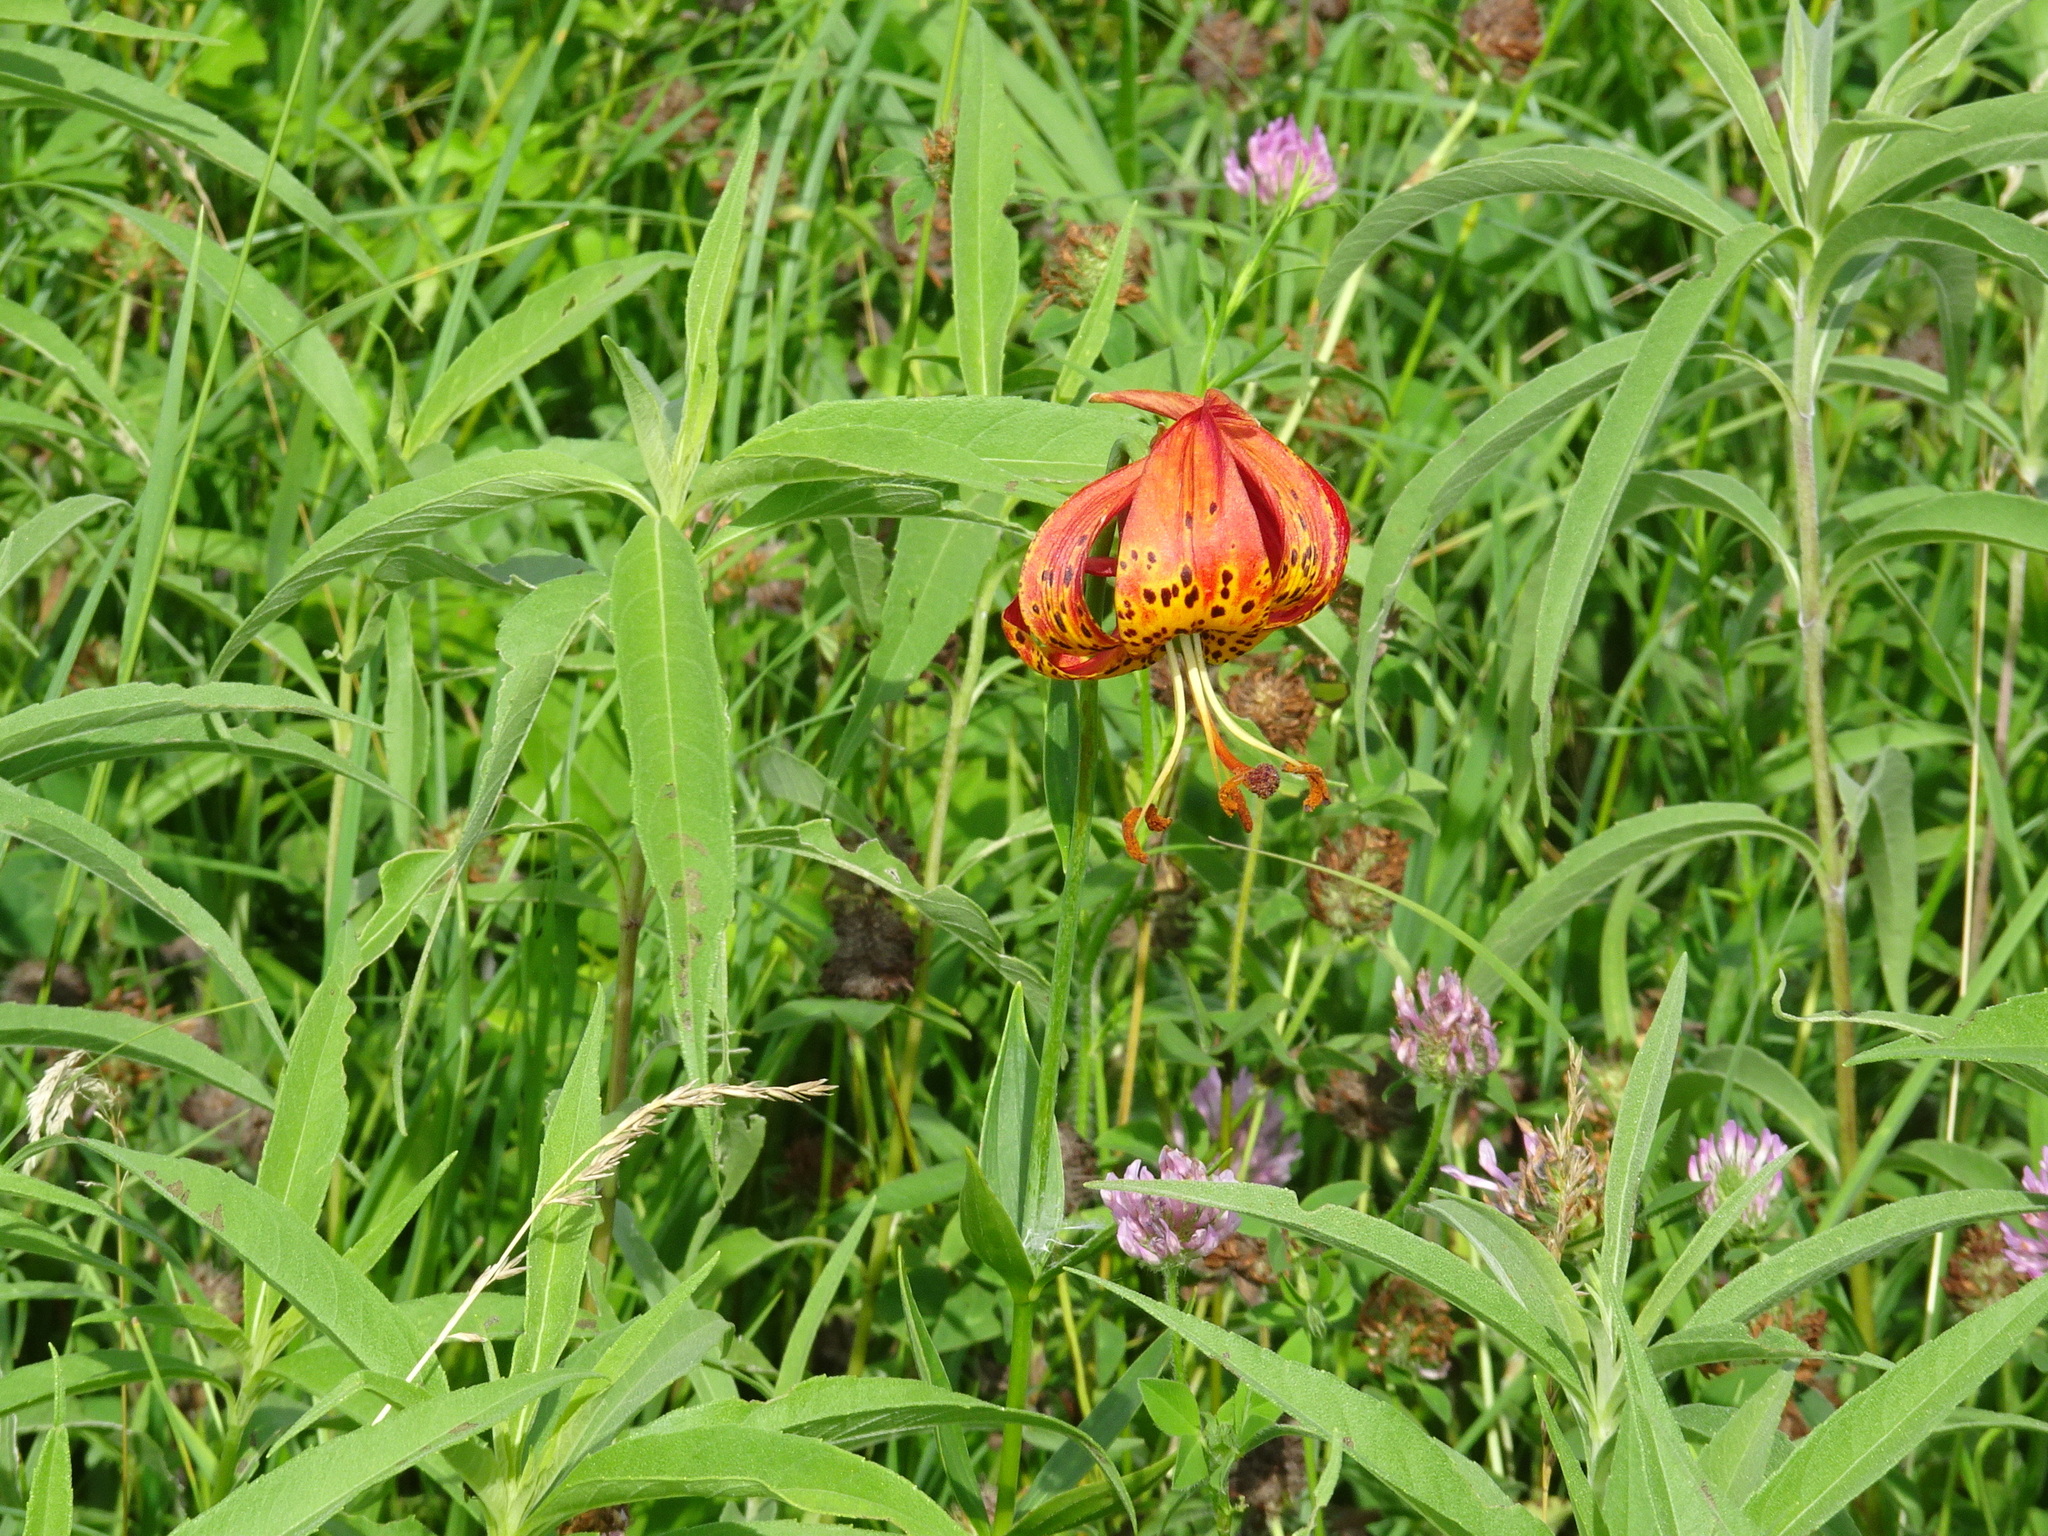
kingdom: Plantae
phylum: Tracheophyta
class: Liliopsida
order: Liliales
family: Liliaceae
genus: Lilium
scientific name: Lilium michiganense
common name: Michigan lily
